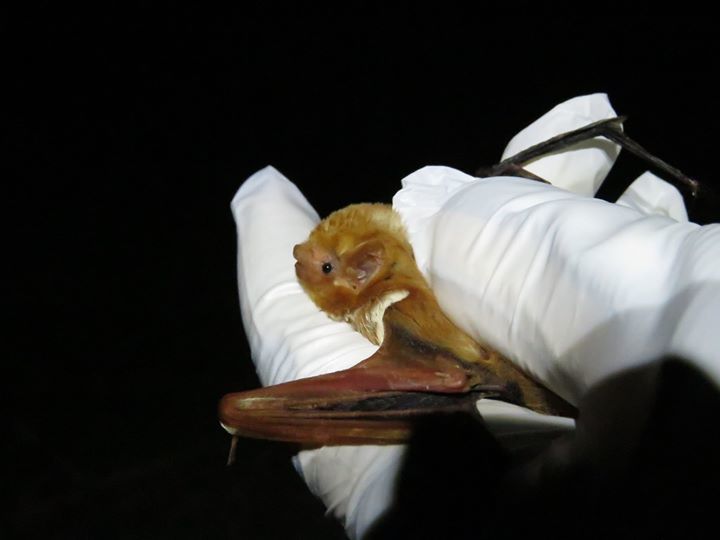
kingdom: Animalia
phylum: Chordata
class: Mammalia
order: Chiroptera
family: Vespertilionidae
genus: Lasiurus
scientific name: Lasiurus borealis
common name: Eastern red bat
